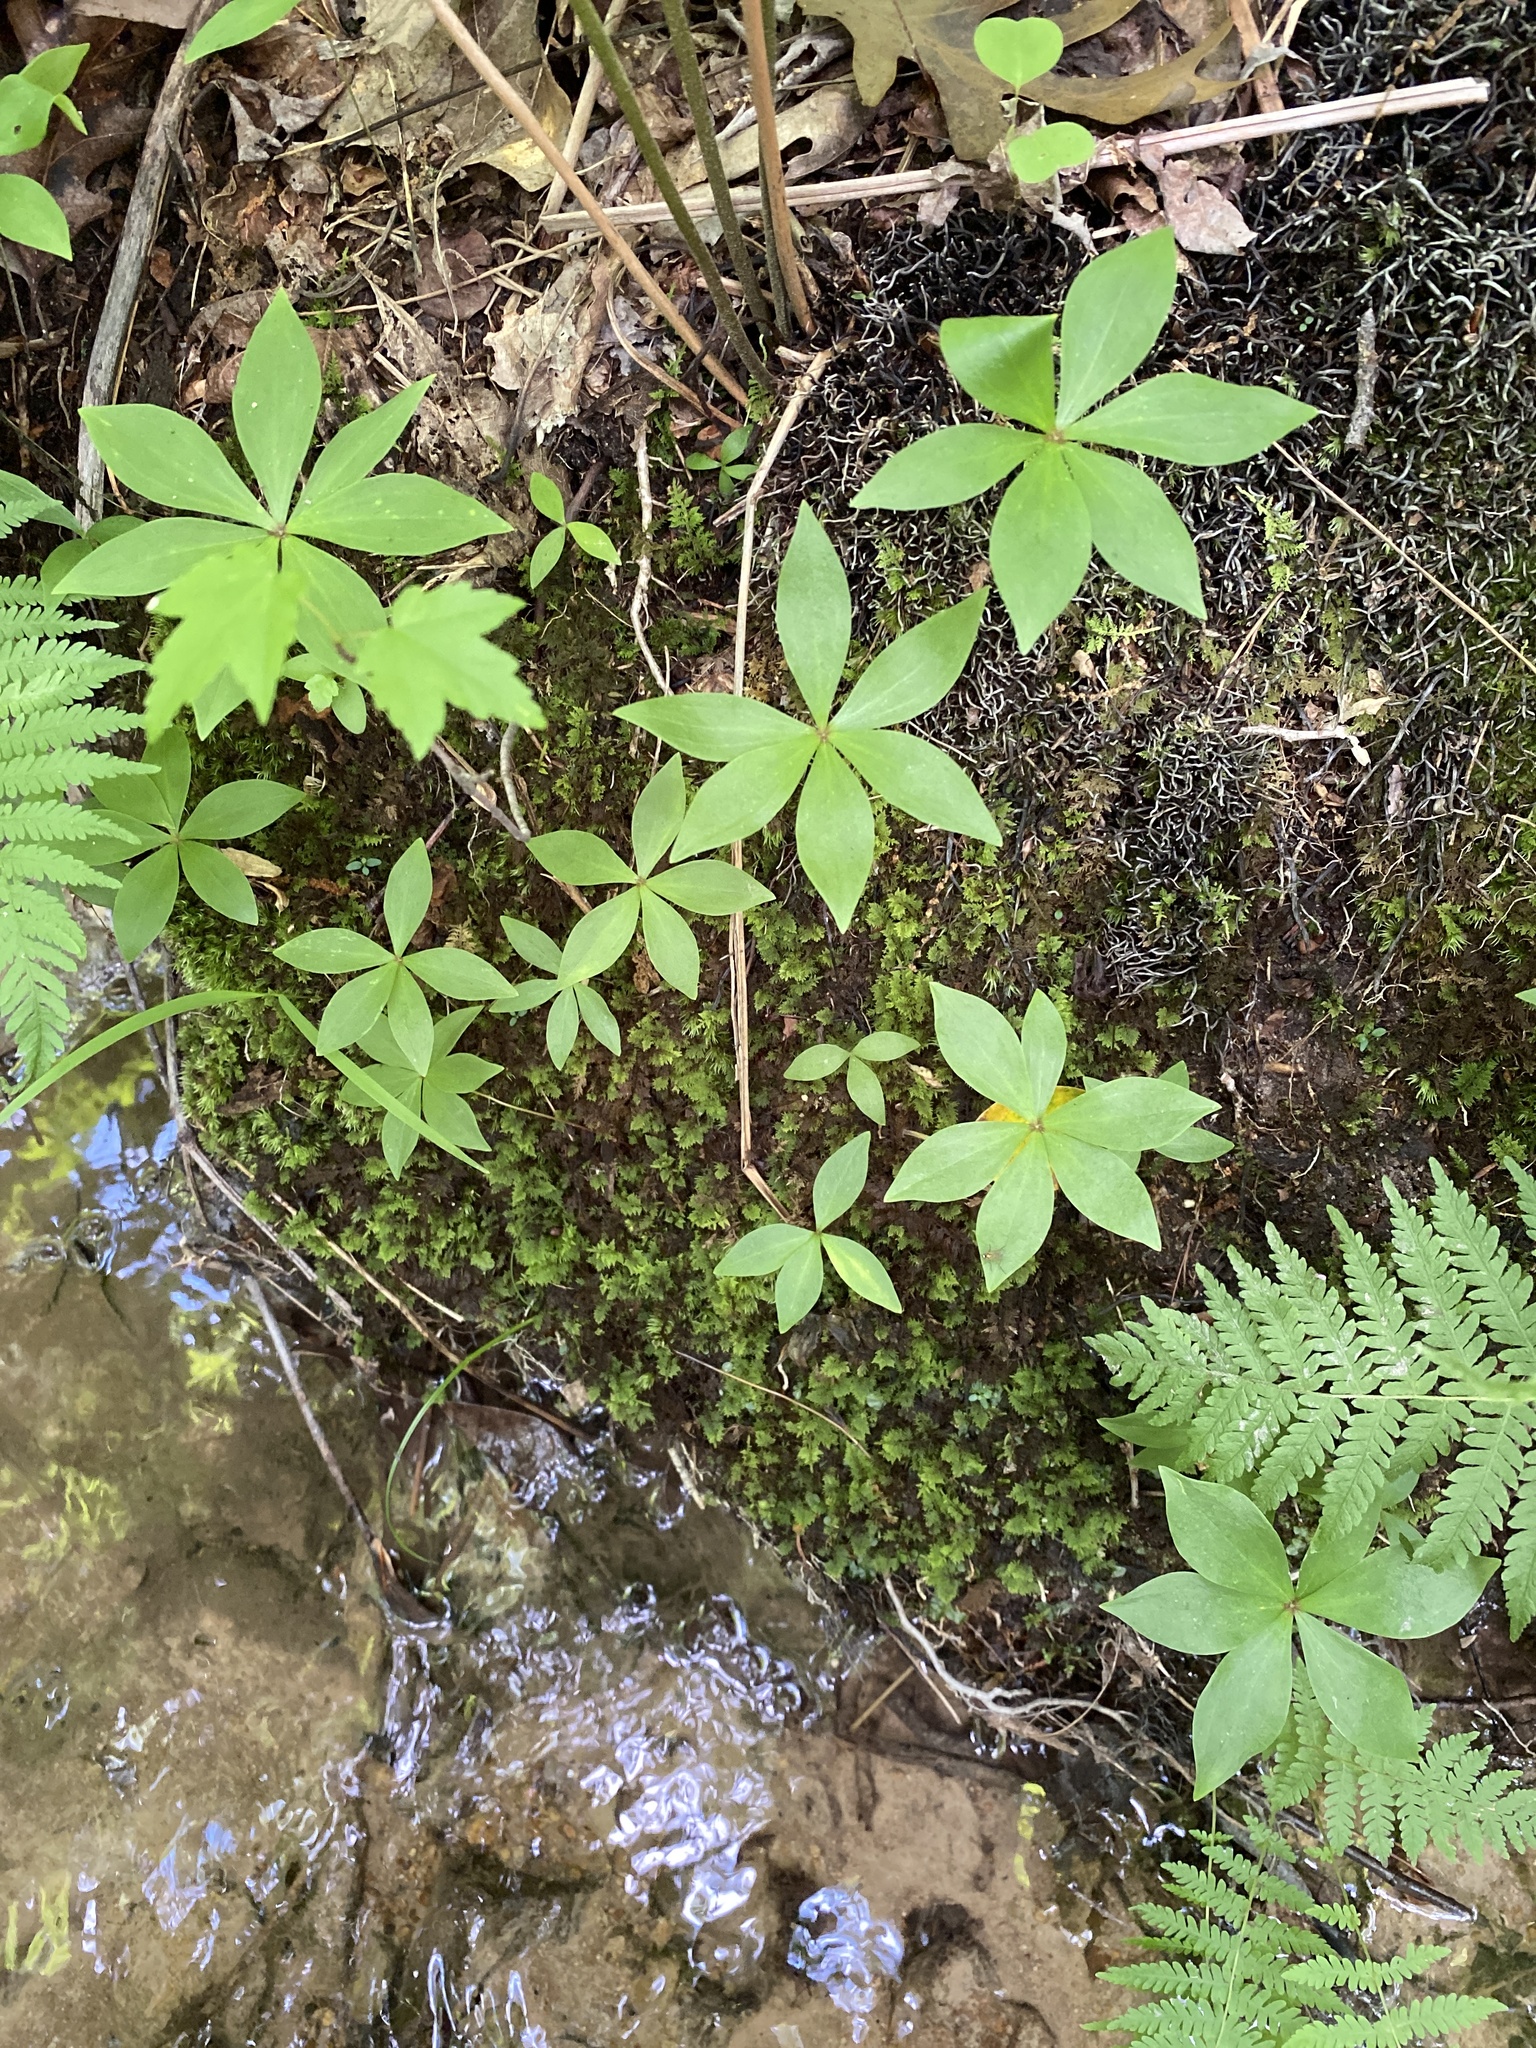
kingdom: Plantae
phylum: Tracheophyta
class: Liliopsida
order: Liliales
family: Liliaceae
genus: Medeola
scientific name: Medeola virginiana
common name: Indian cucumber-root
